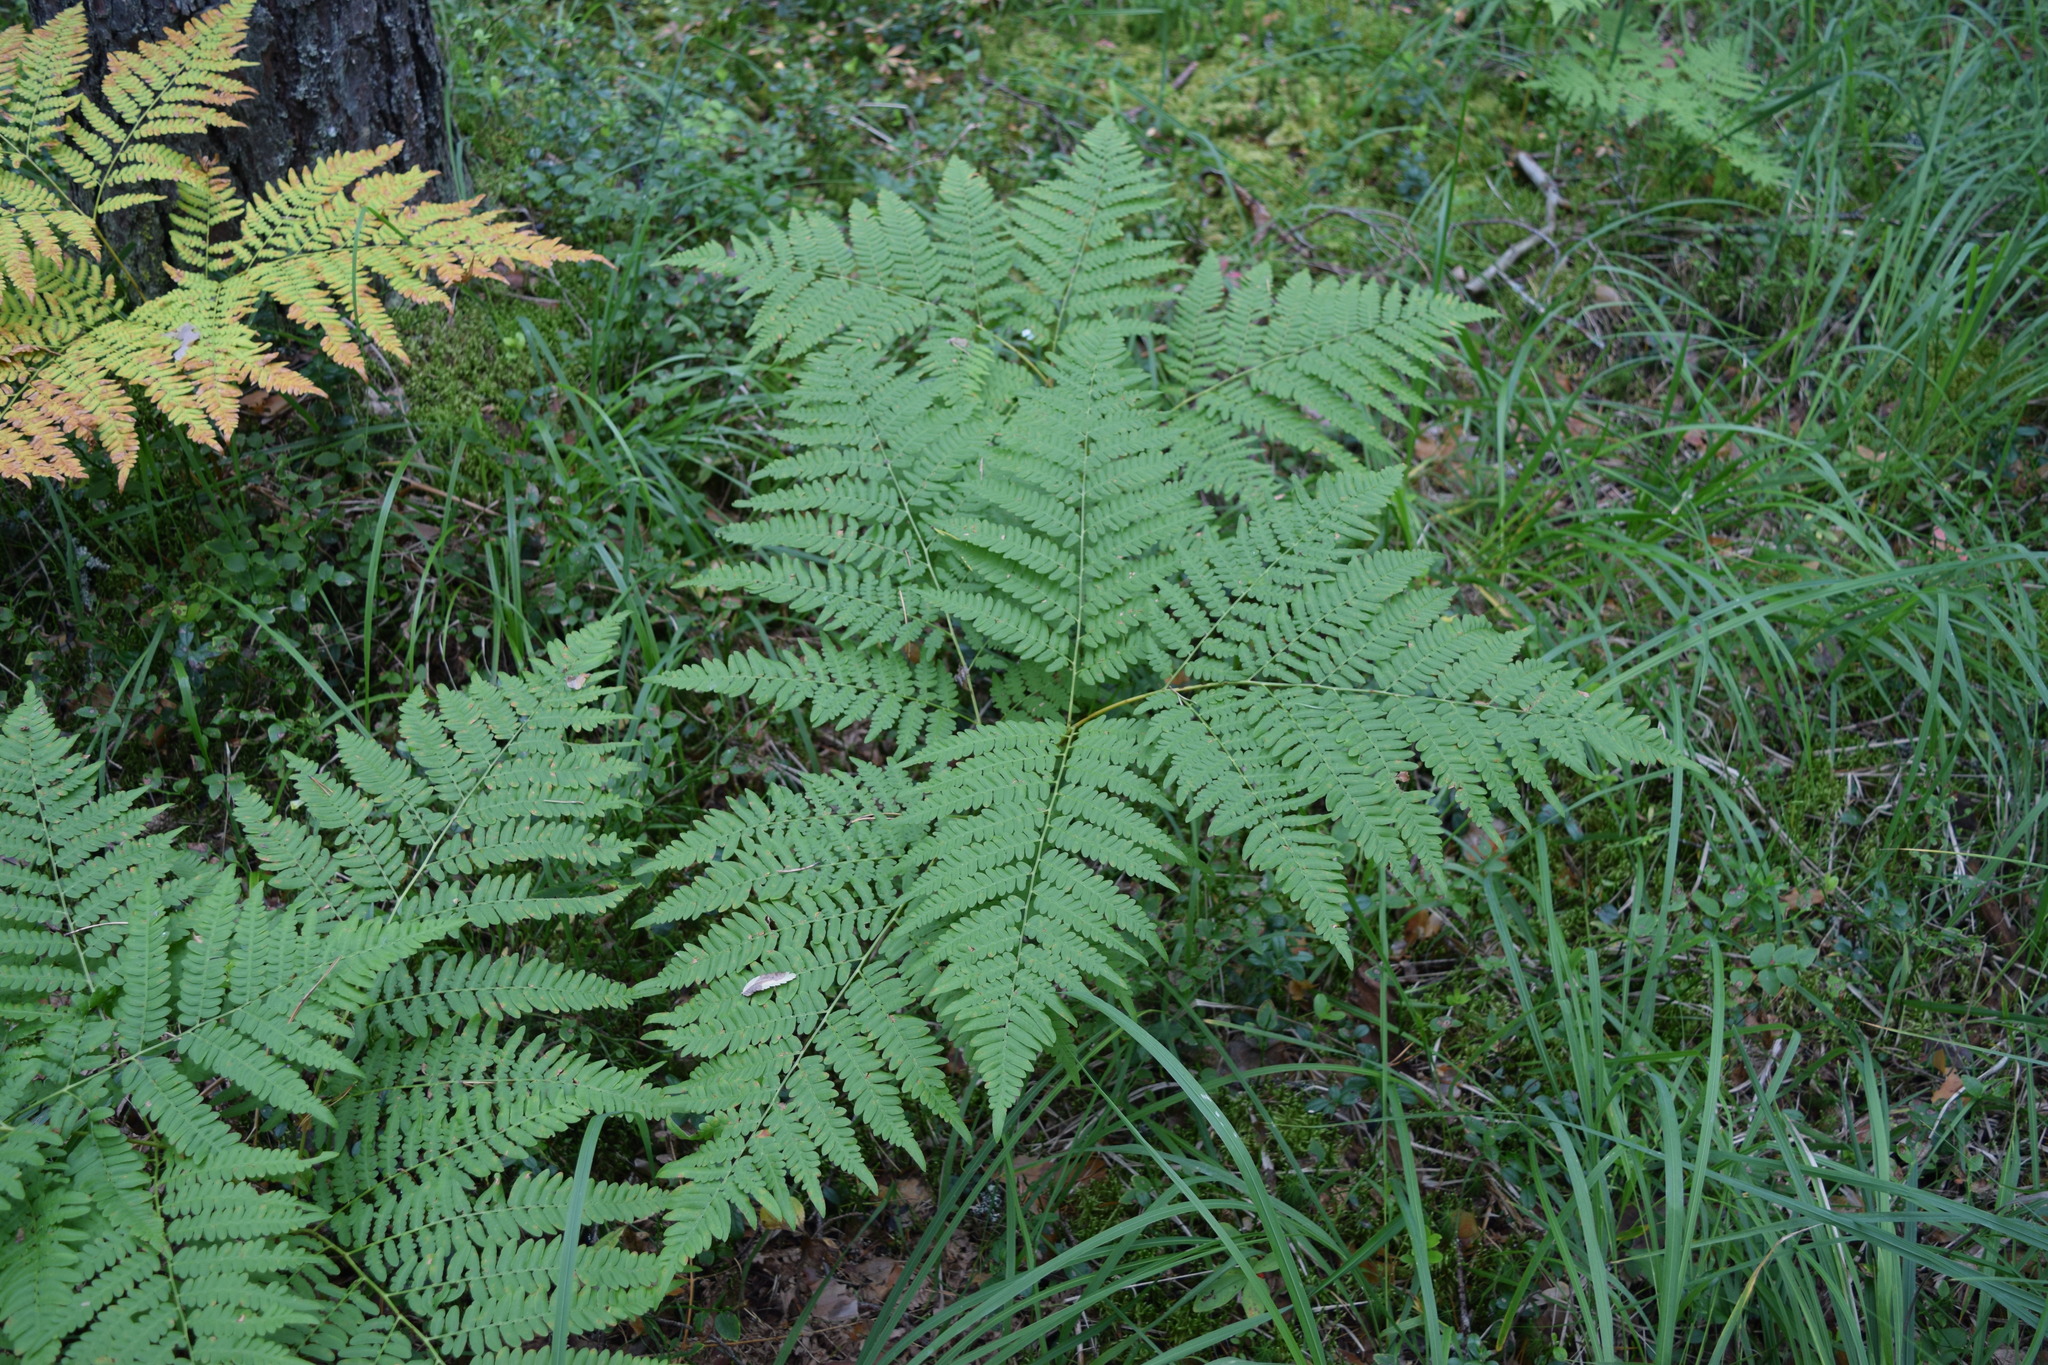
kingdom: Plantae
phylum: Tracheophyta
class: Polypodiopsida
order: Polypodiales
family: Dennstaedtiaceae
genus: Pteridium
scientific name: Pteridium aquilinum
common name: Bracken
